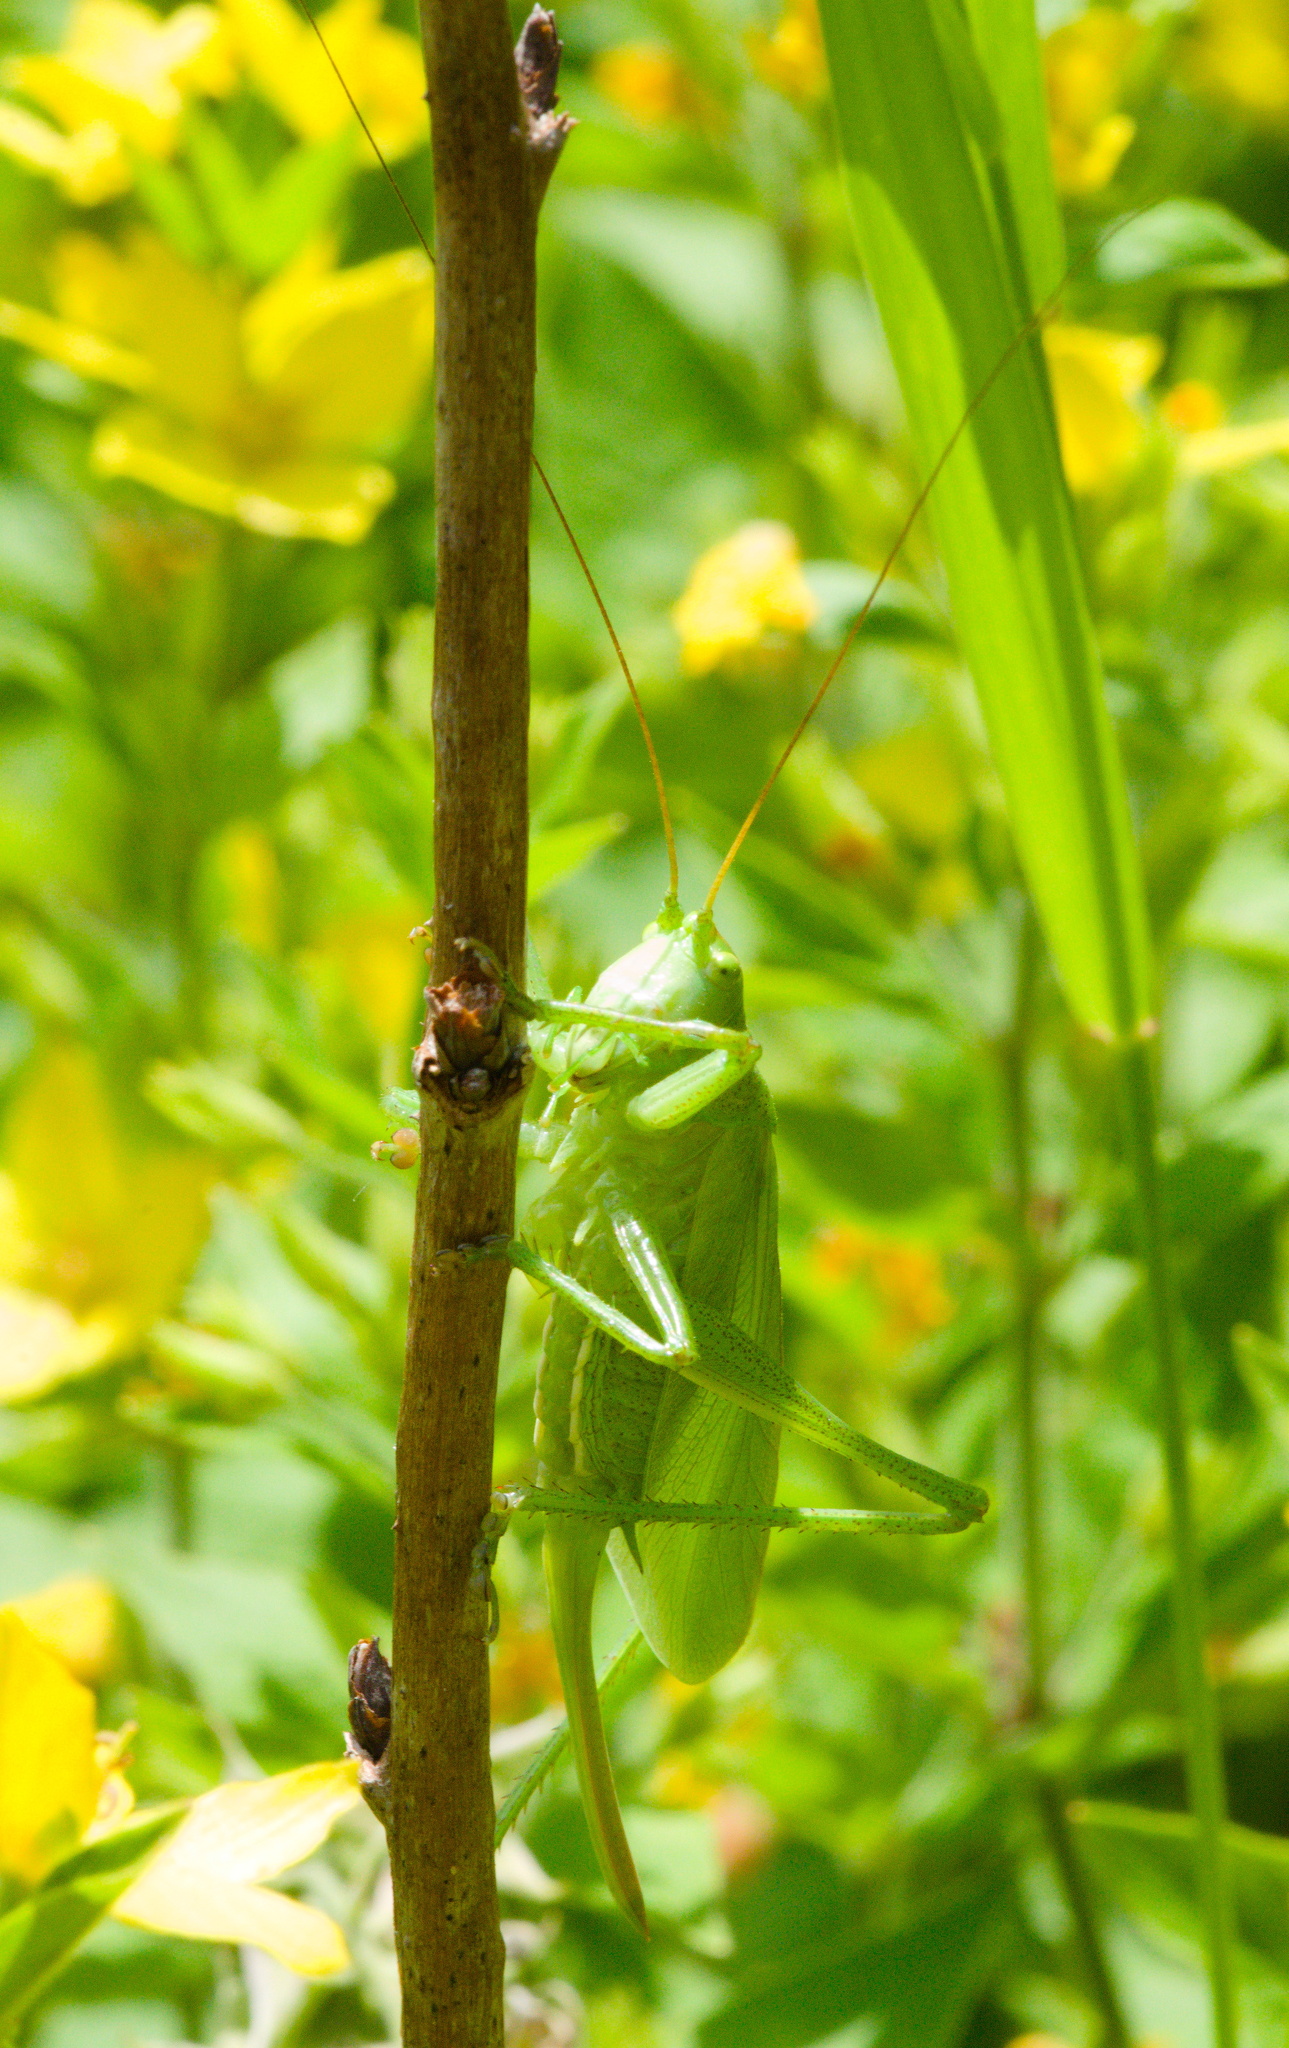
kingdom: Animalia
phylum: Arthropoda
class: Insecta
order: Orthoptera
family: Tettigoniidae
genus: Tettigonia
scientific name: Tettigonia cantans
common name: Upland green bush-cricket
